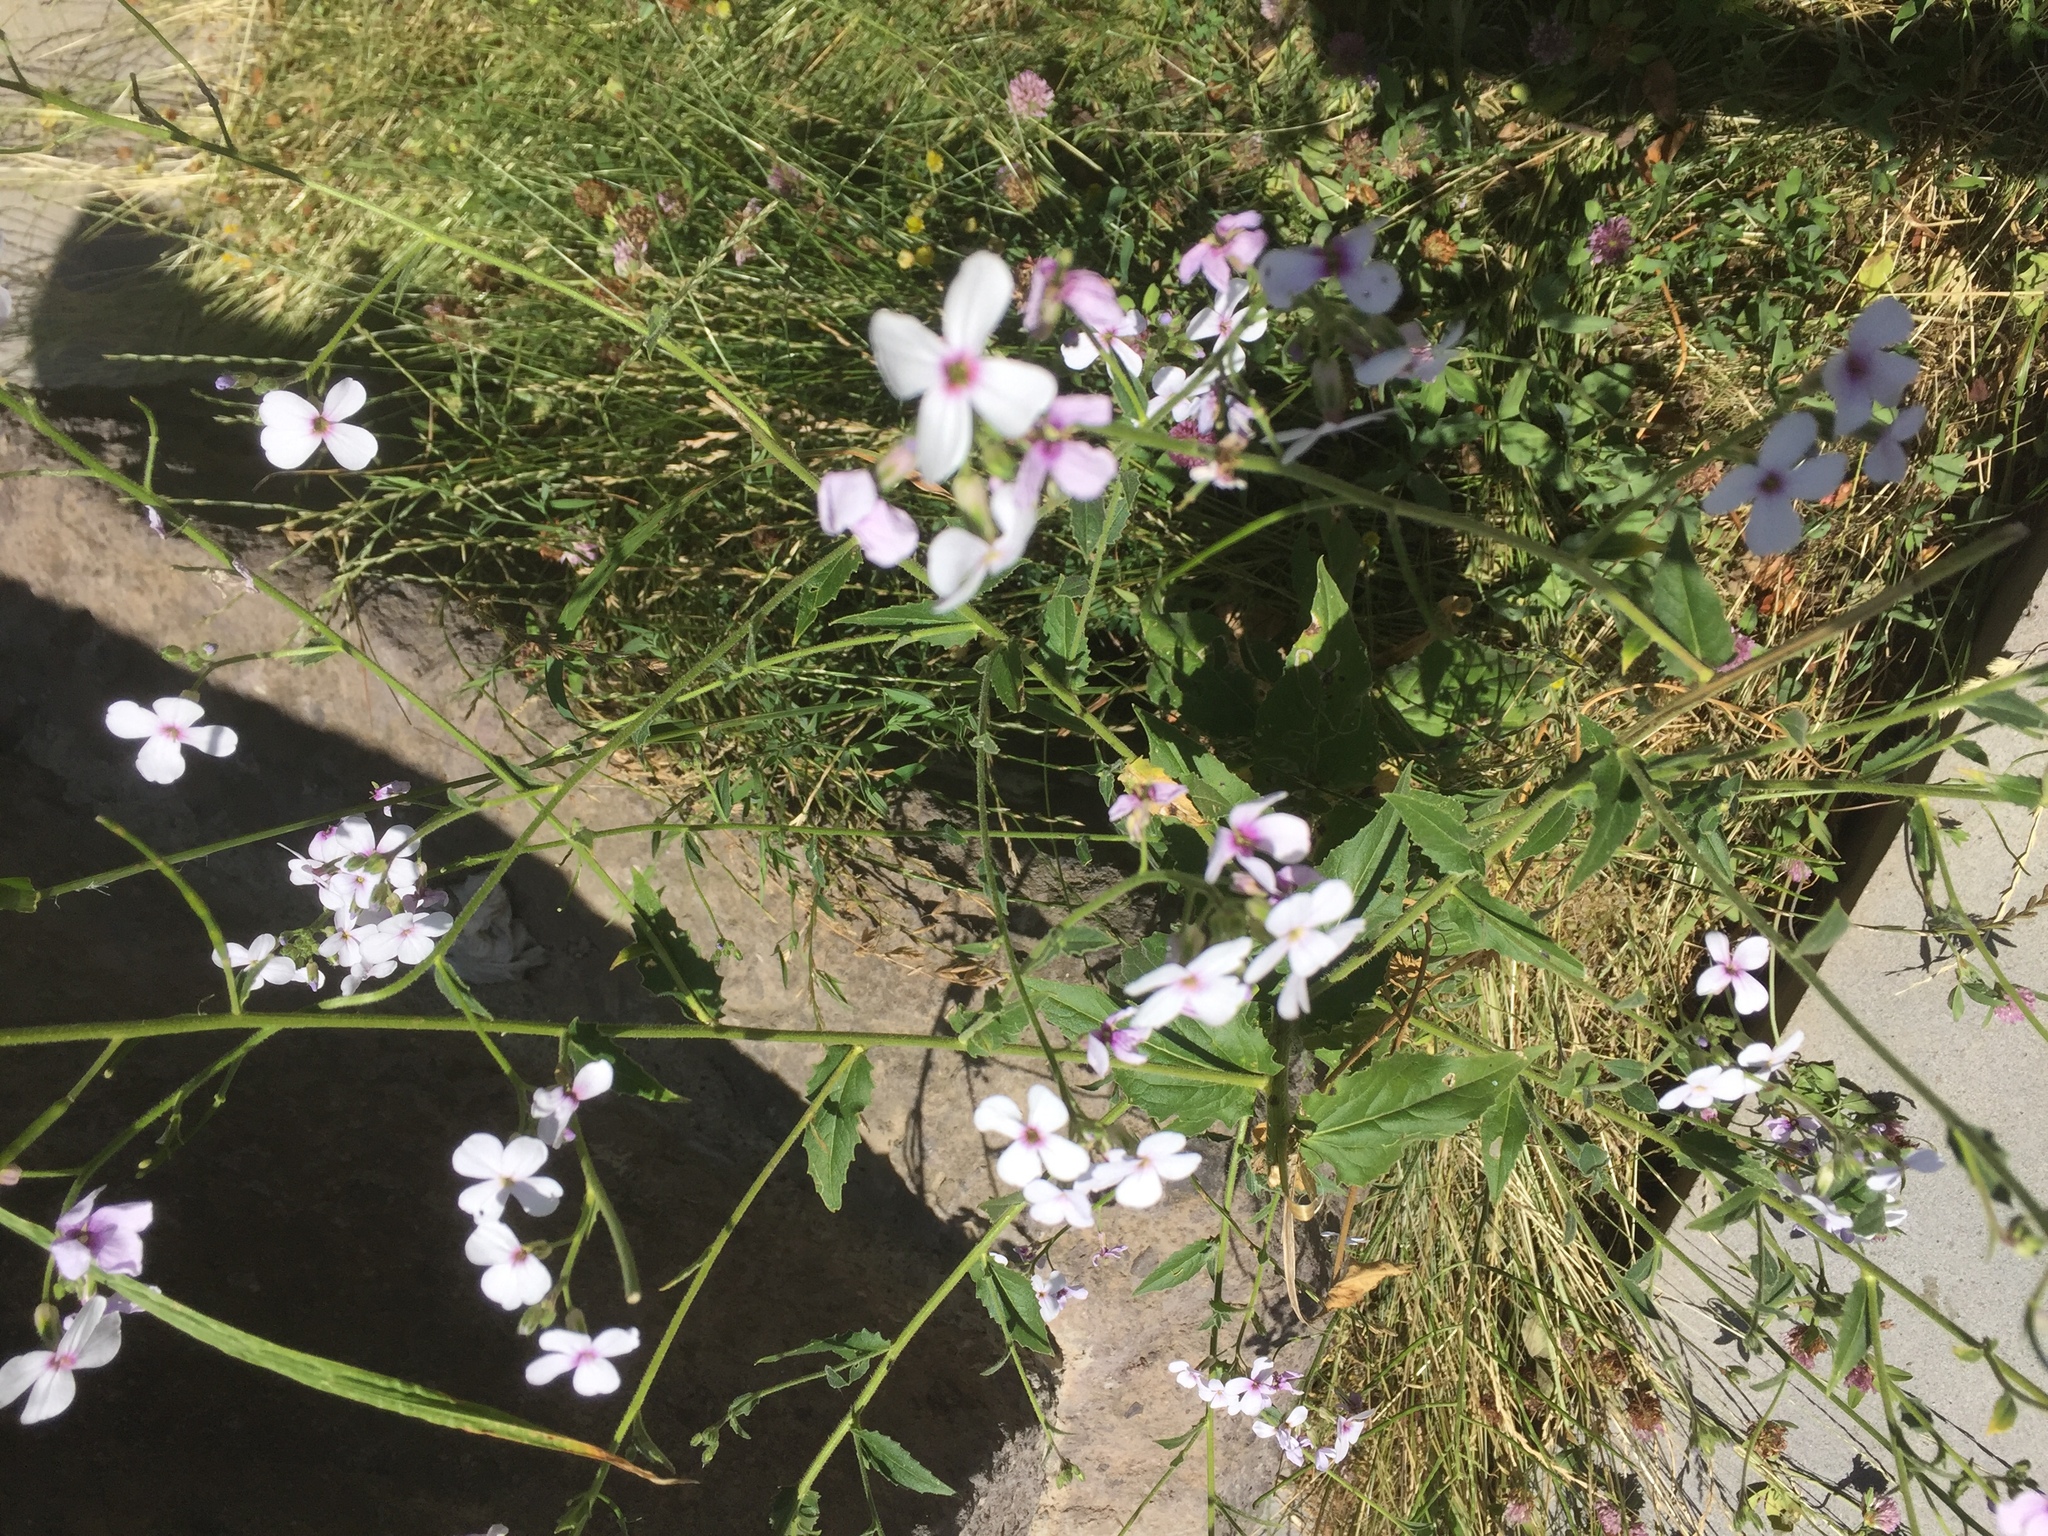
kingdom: Plantae
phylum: Tracheophyta
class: Magnoliopsida
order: Brassicales
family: Brassicaceae
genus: Hesperis
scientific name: Hesperis matronalis
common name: Dame's-violet
